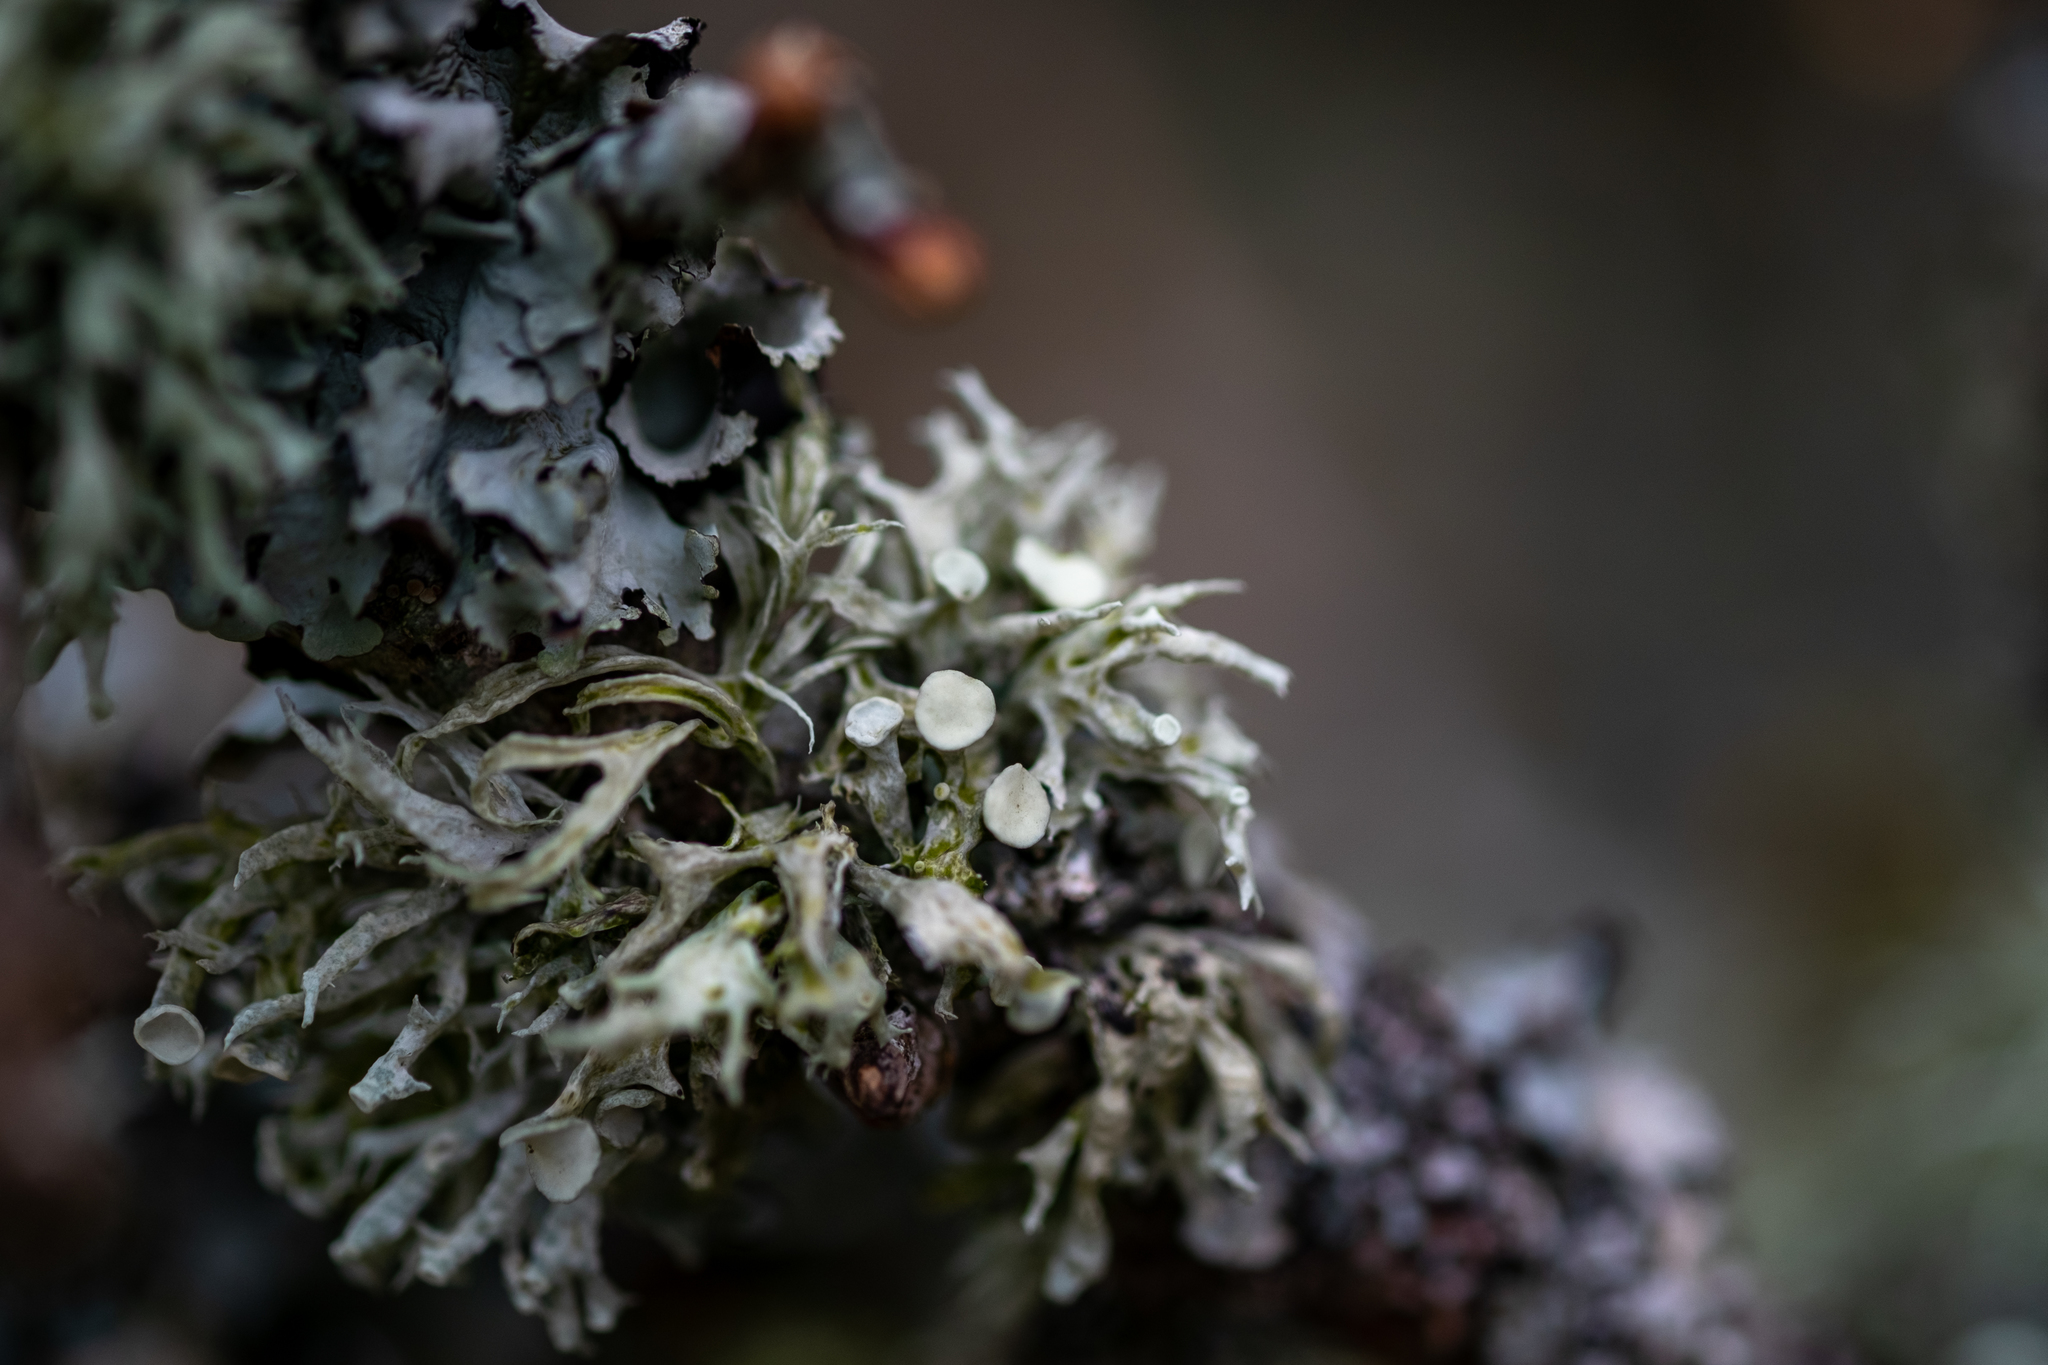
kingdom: Fungi
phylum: Ascomycota
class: Lecanoromycetes
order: Lecanorales
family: Ramalinaceae
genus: Ramalina
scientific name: Ramalina fastigiata
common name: Dotted ribbon lichen
